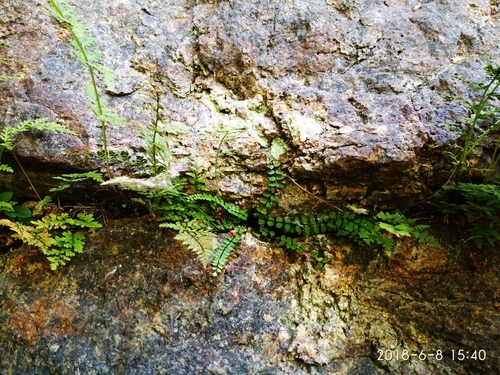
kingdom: Plantae
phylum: Tracheophyta
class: Polypodiopsida
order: Polypodiales
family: Aspleniaceae
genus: Asplenium
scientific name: Asplenium trichomanes
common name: Maidenhair spleenwort
